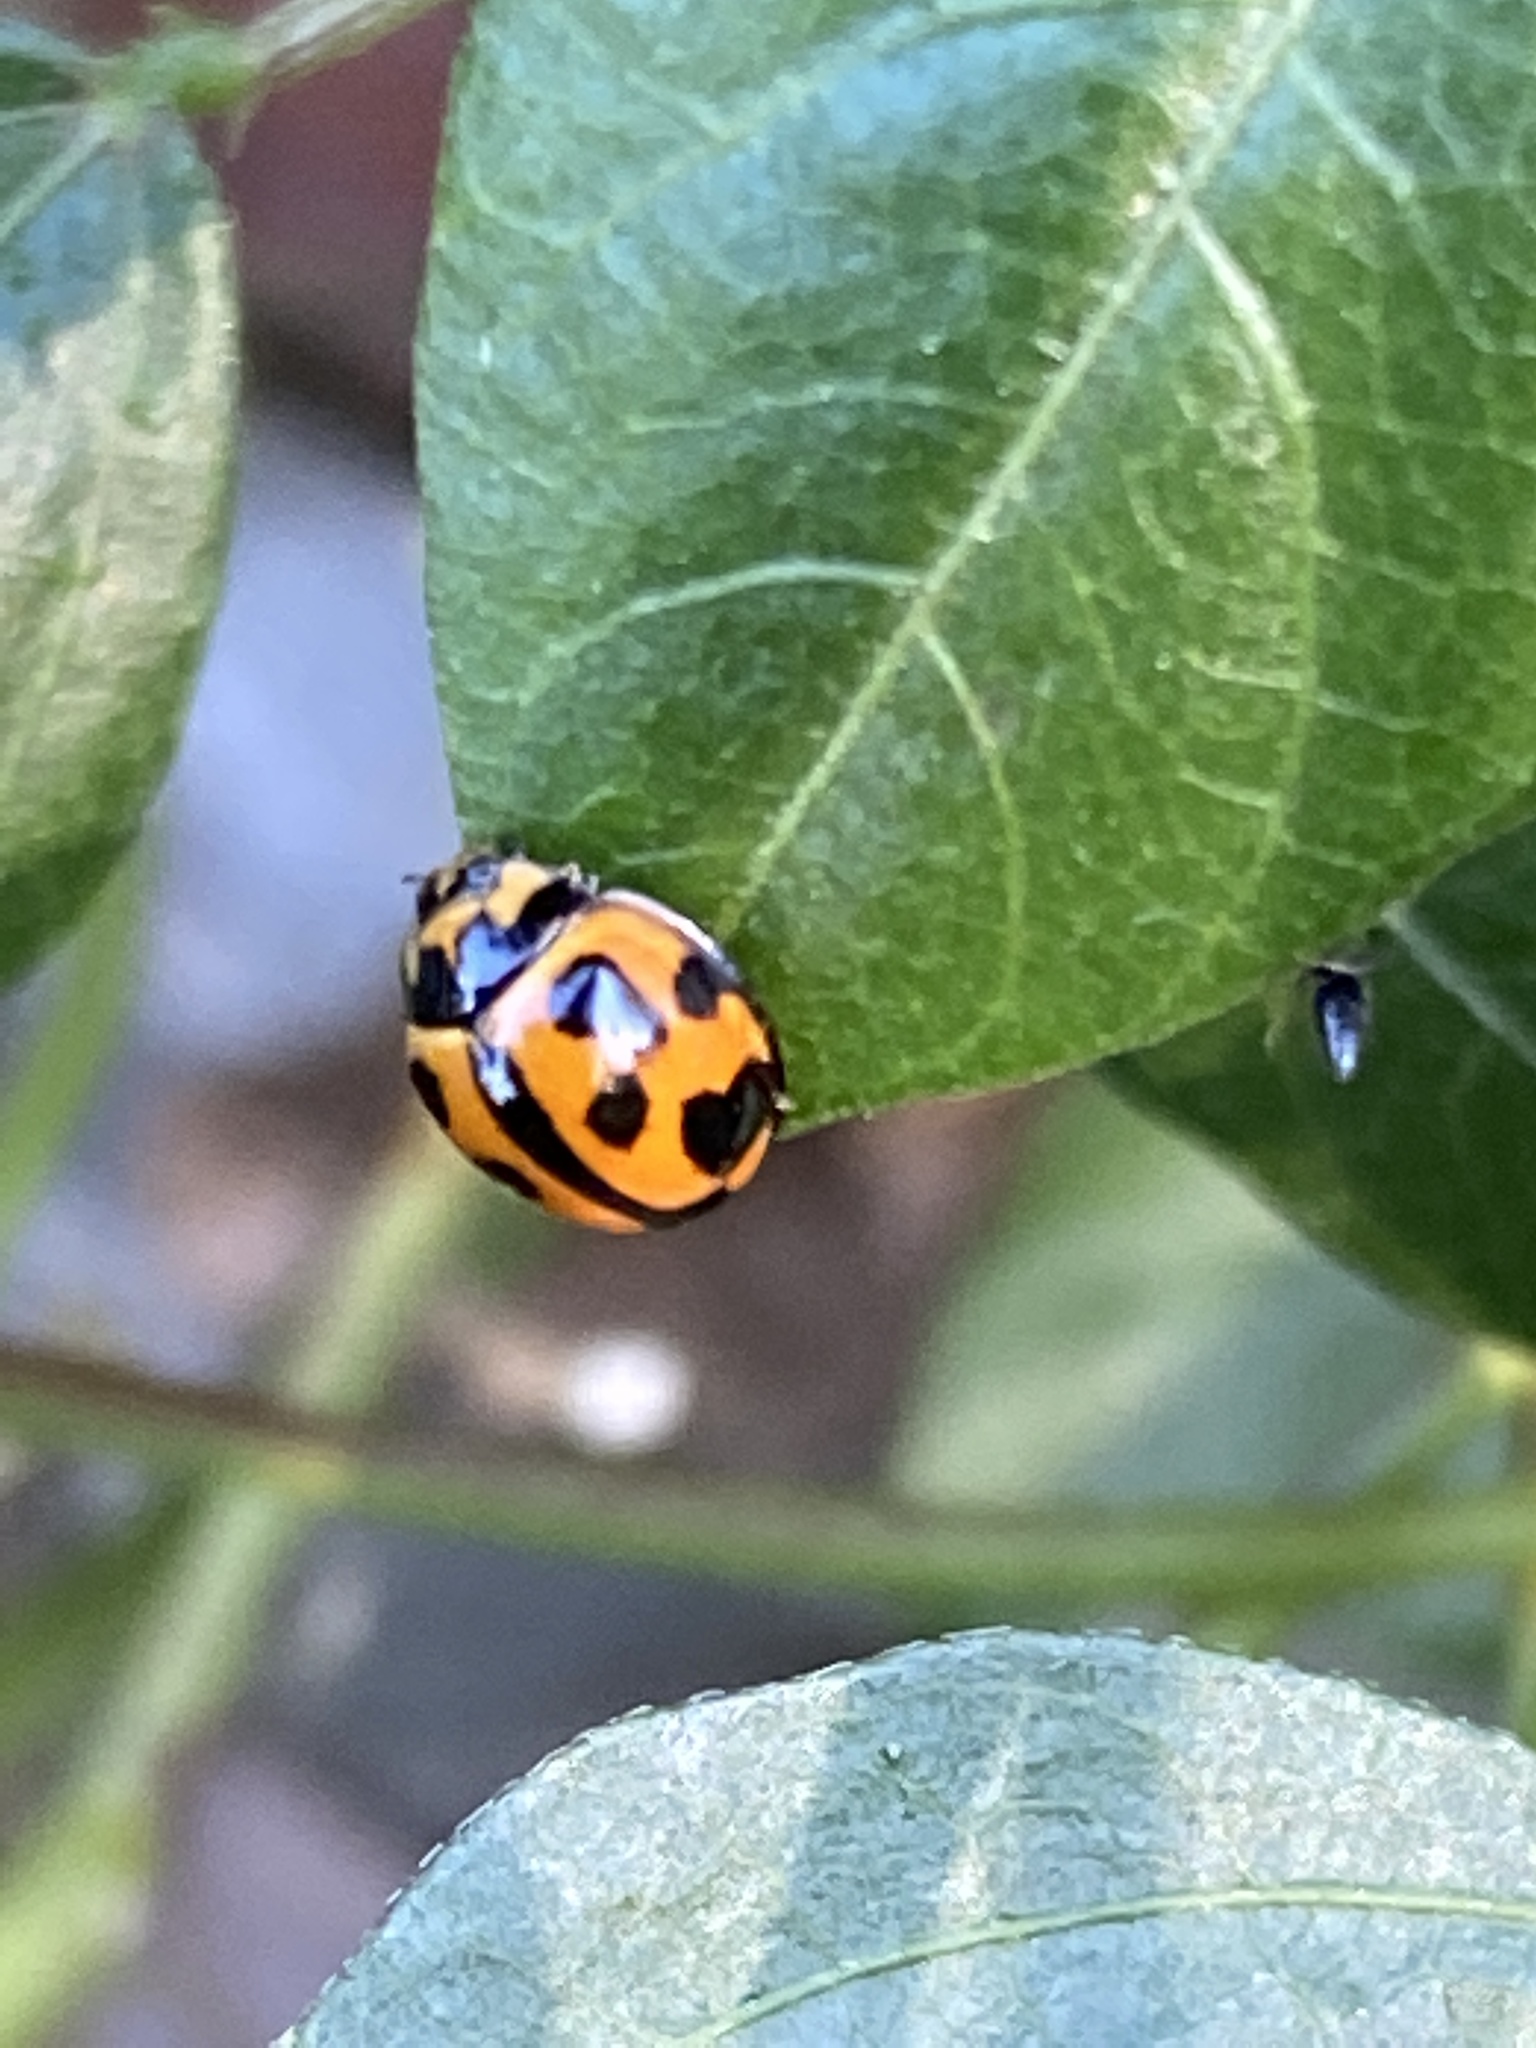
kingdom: Animalia
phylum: Arthropoda
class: Insecta
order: Coleoptera
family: Coccinellidae
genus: Coelophora
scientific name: Coelophora inaequalis
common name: Common australian lady beetle
